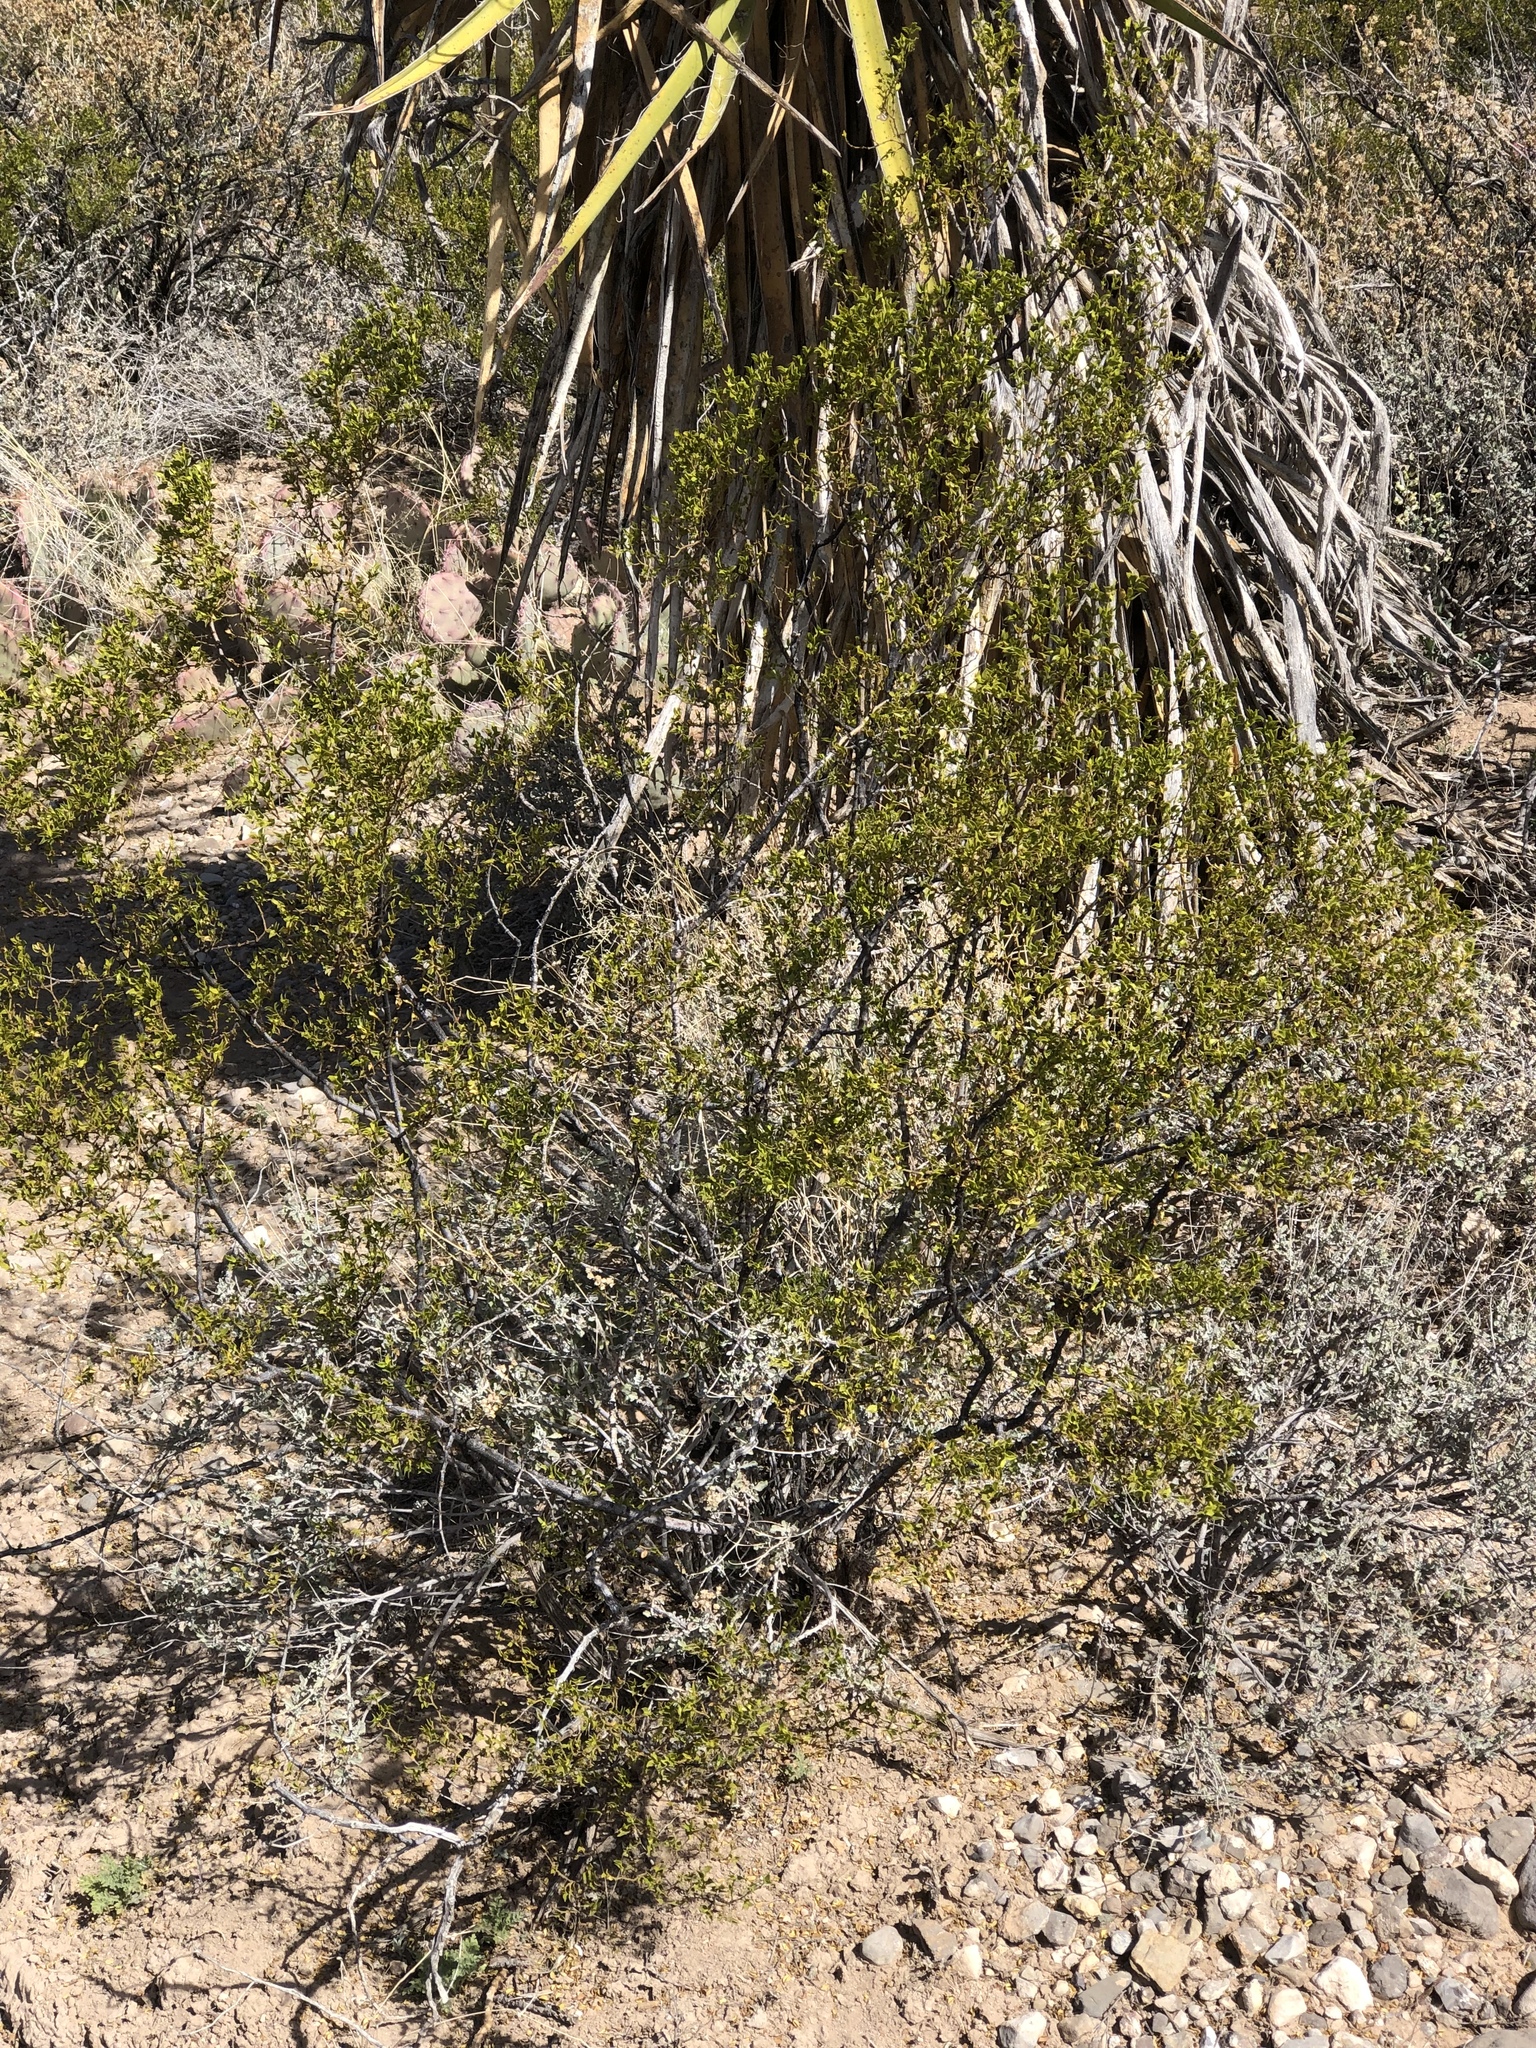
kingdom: Plantae
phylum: Tracheophyta
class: Magnoliopsida
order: Zygophyllales
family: Zygophyllaceae
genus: Larrea
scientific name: Larrea tridentata
